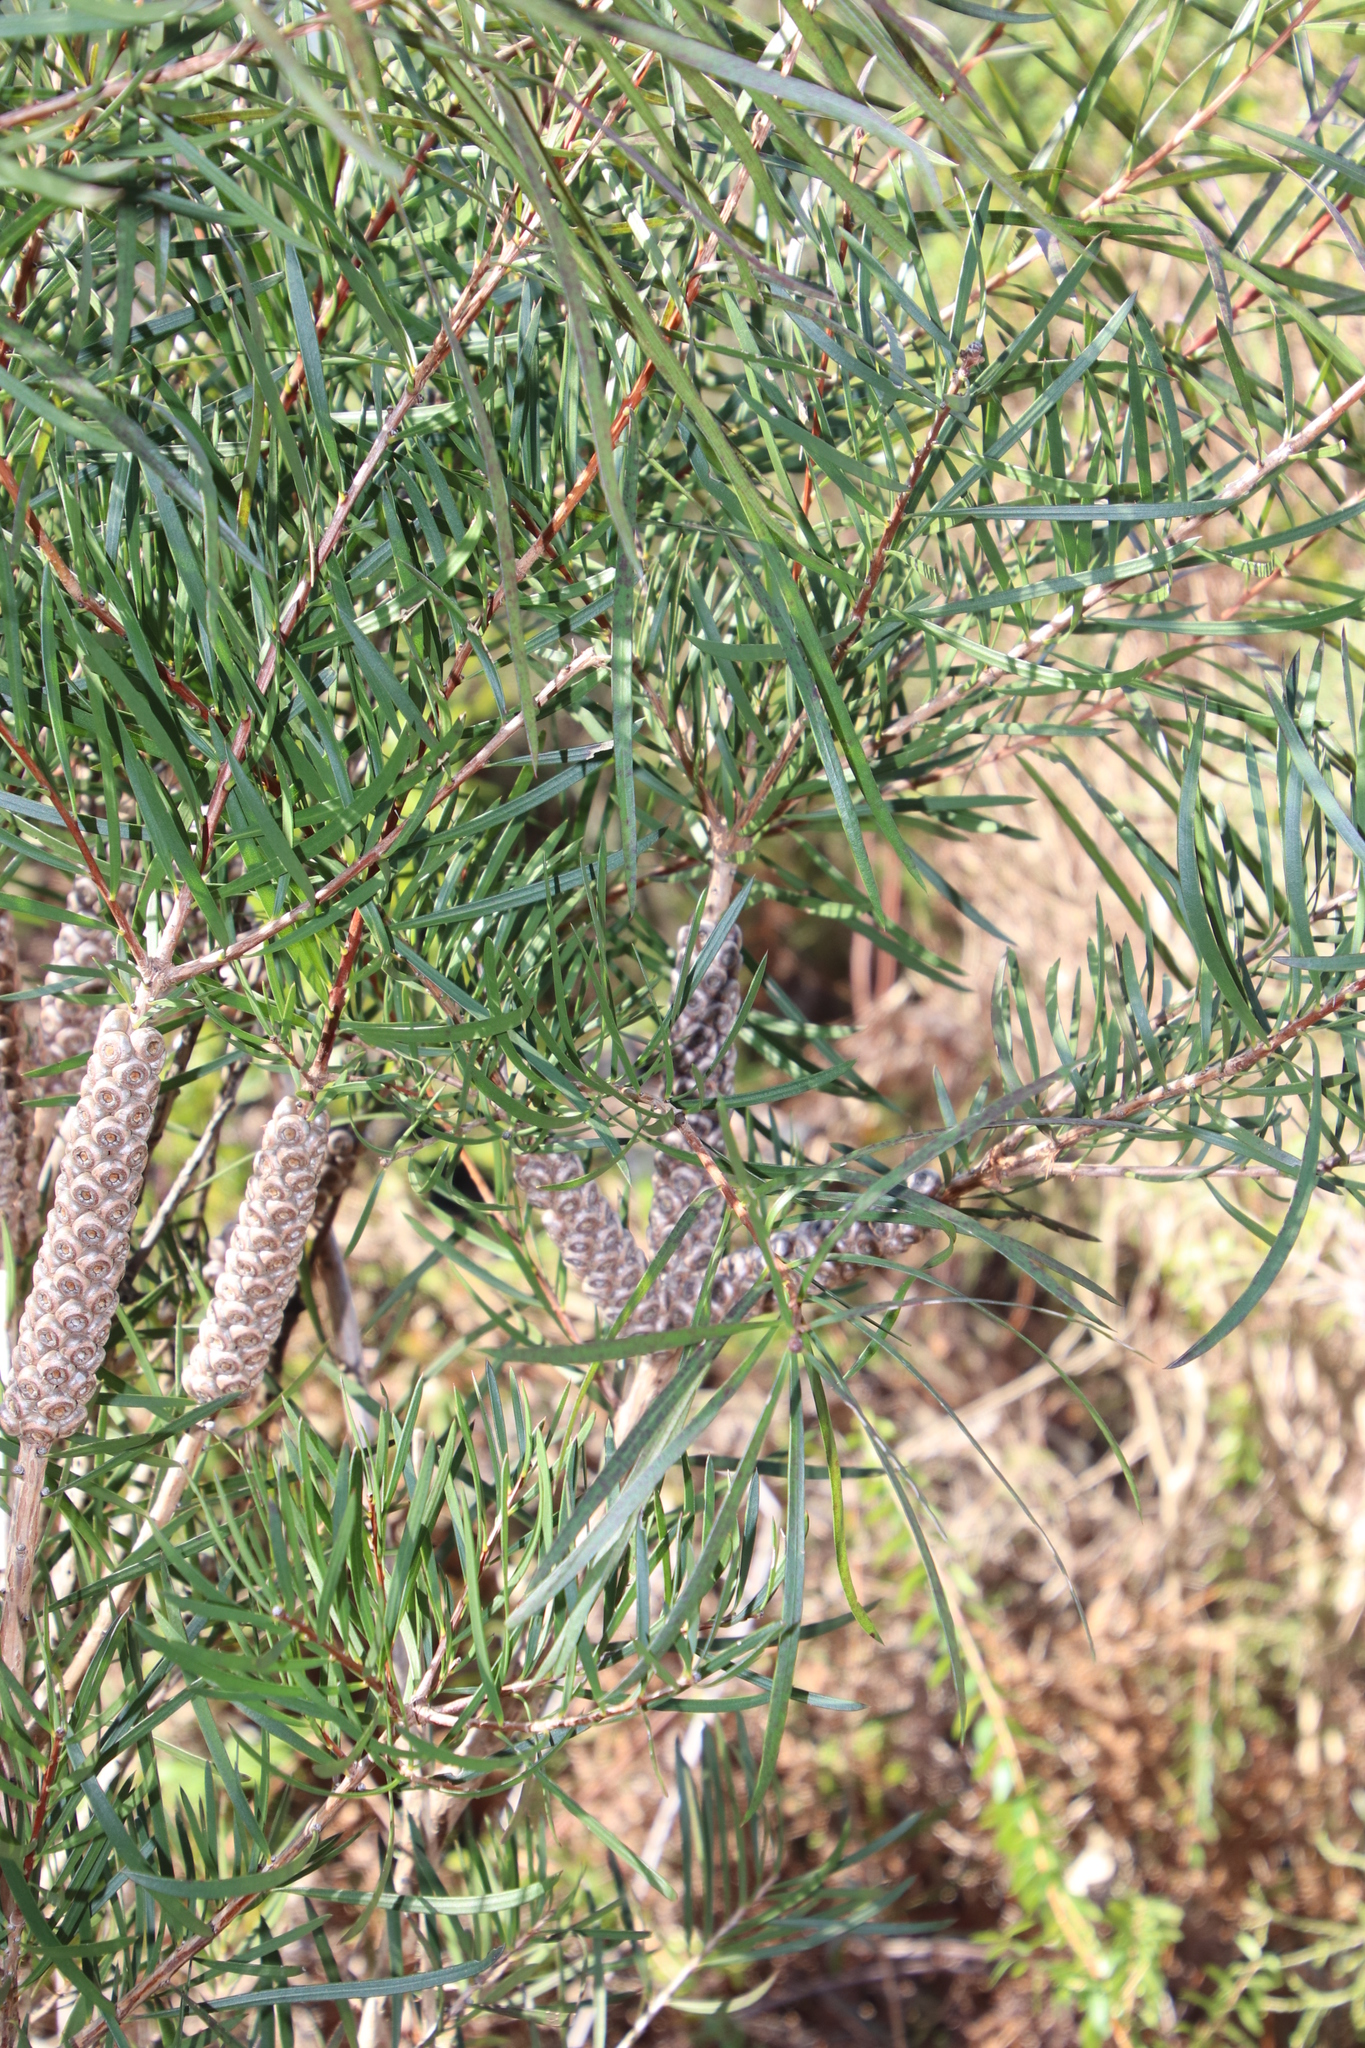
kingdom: Plantae
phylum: Tracheophyta
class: Magnoliopsida
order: Myrtales
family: Myrtaceae
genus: Callistemon
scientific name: Callistemon linearis
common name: Narrow-leaf bottlebrush
